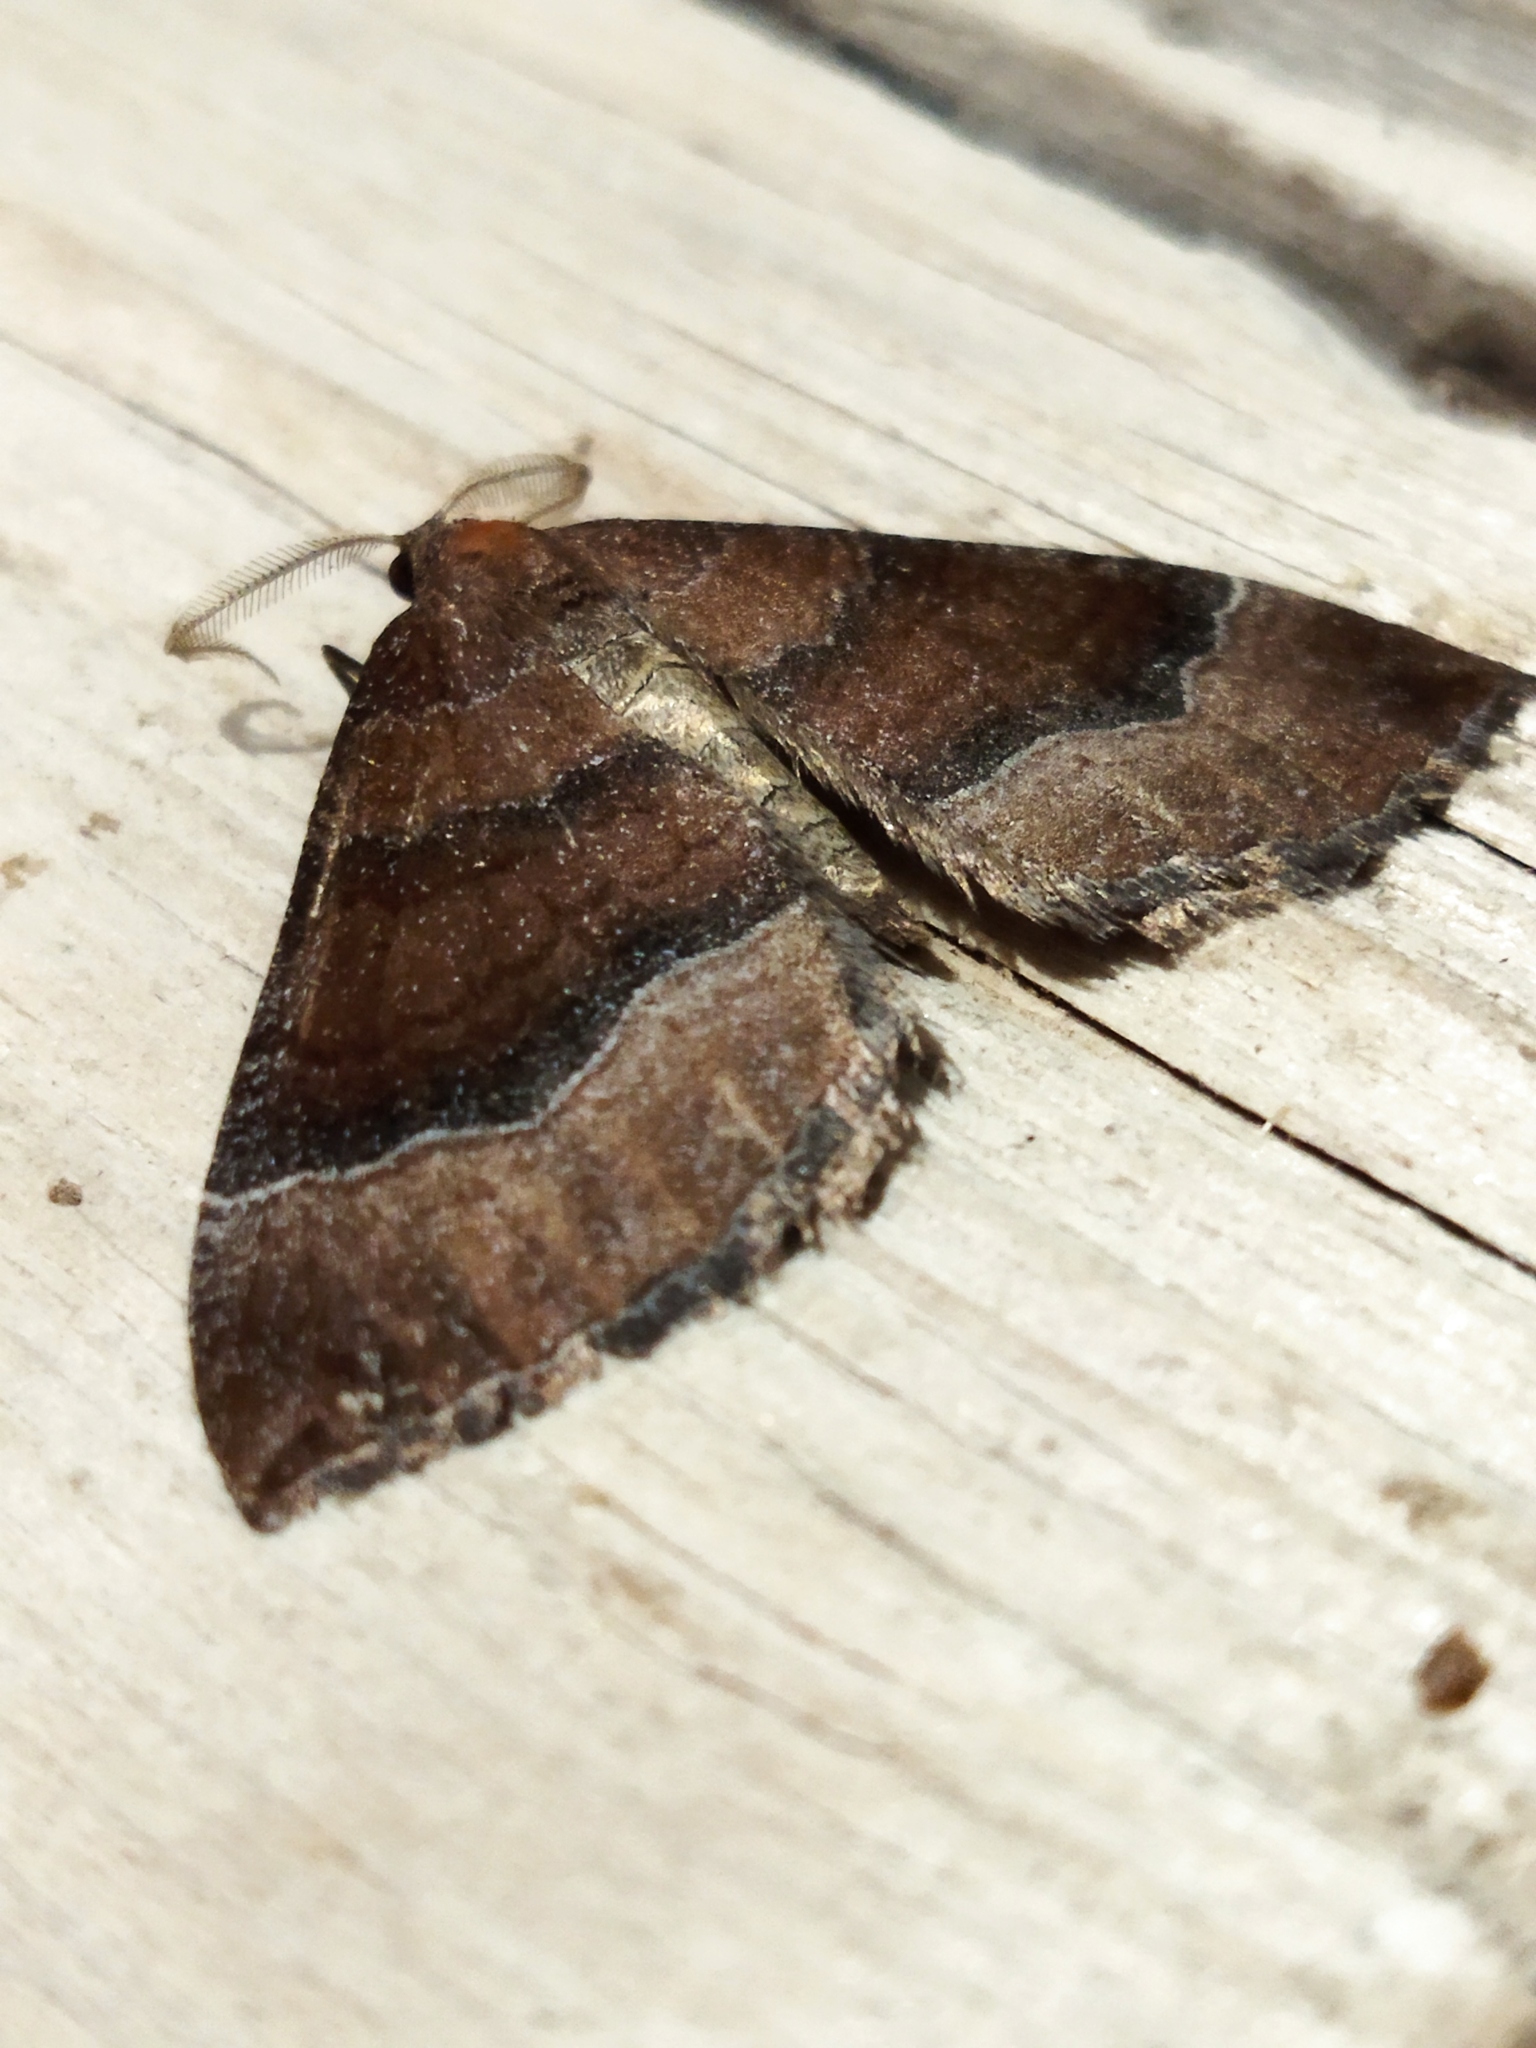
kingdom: Animalia
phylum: Arthropoda
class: Insecta
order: Lepidoptera
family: Geometridae
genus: Larentia
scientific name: Larentia clavaria
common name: Mallow
